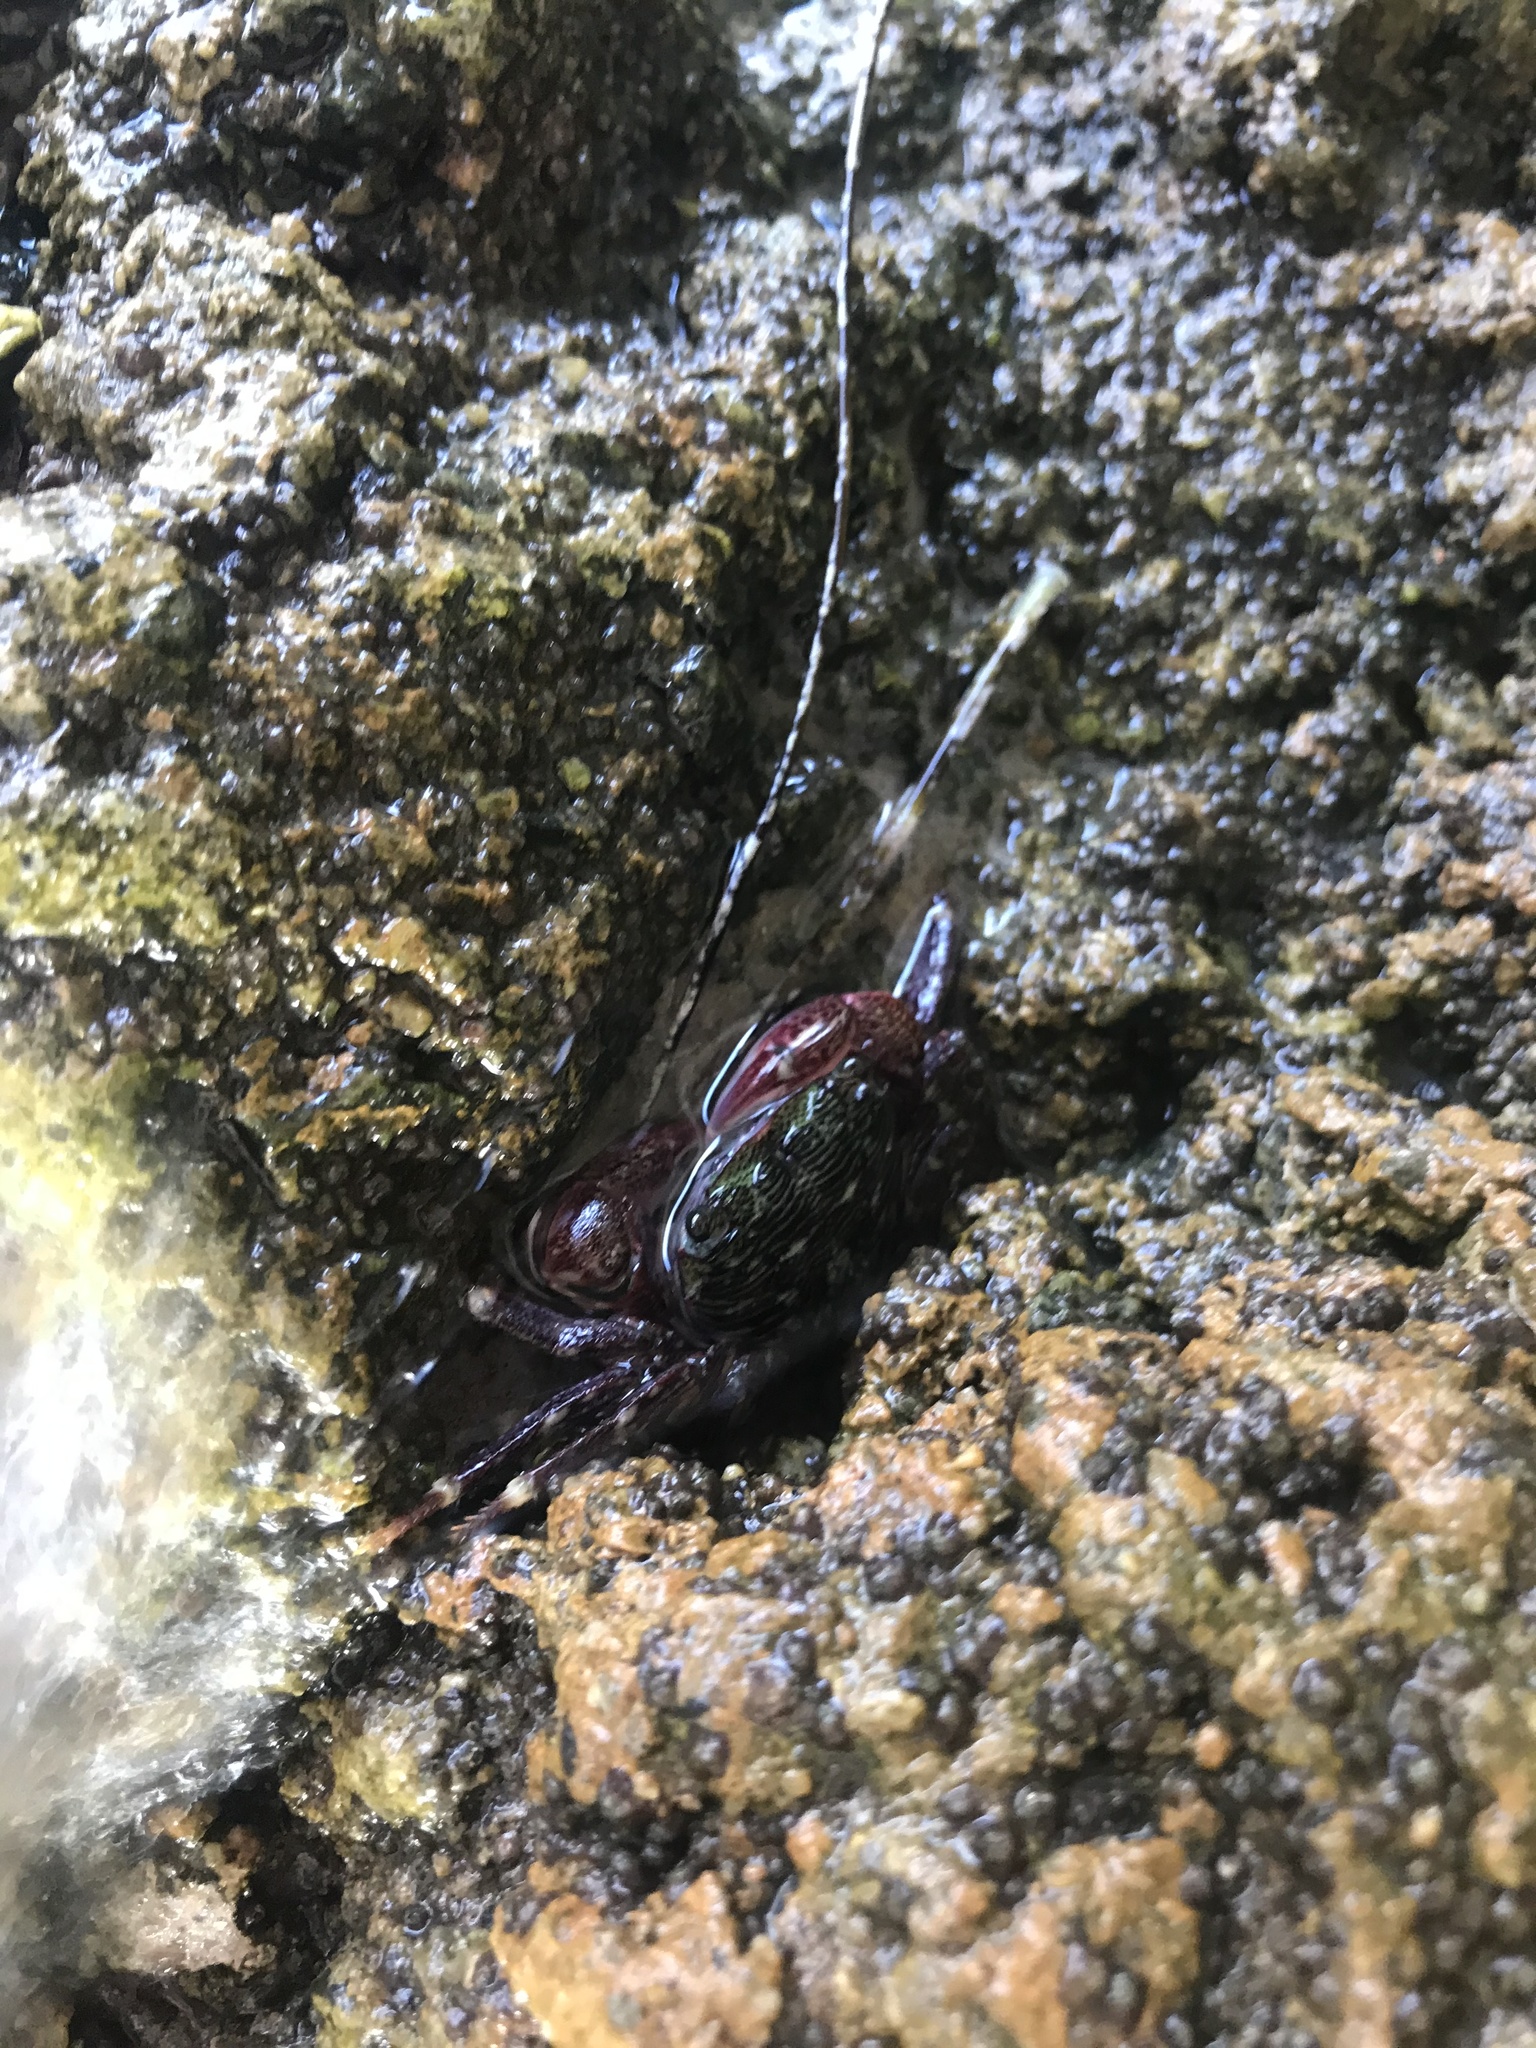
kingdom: Animalia
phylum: Arthropoda
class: Malacostraca
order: Decapoda
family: Grapsidae
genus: Pachygrapsus
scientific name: Pachygrapsus crassipes
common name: Striped shore crab
